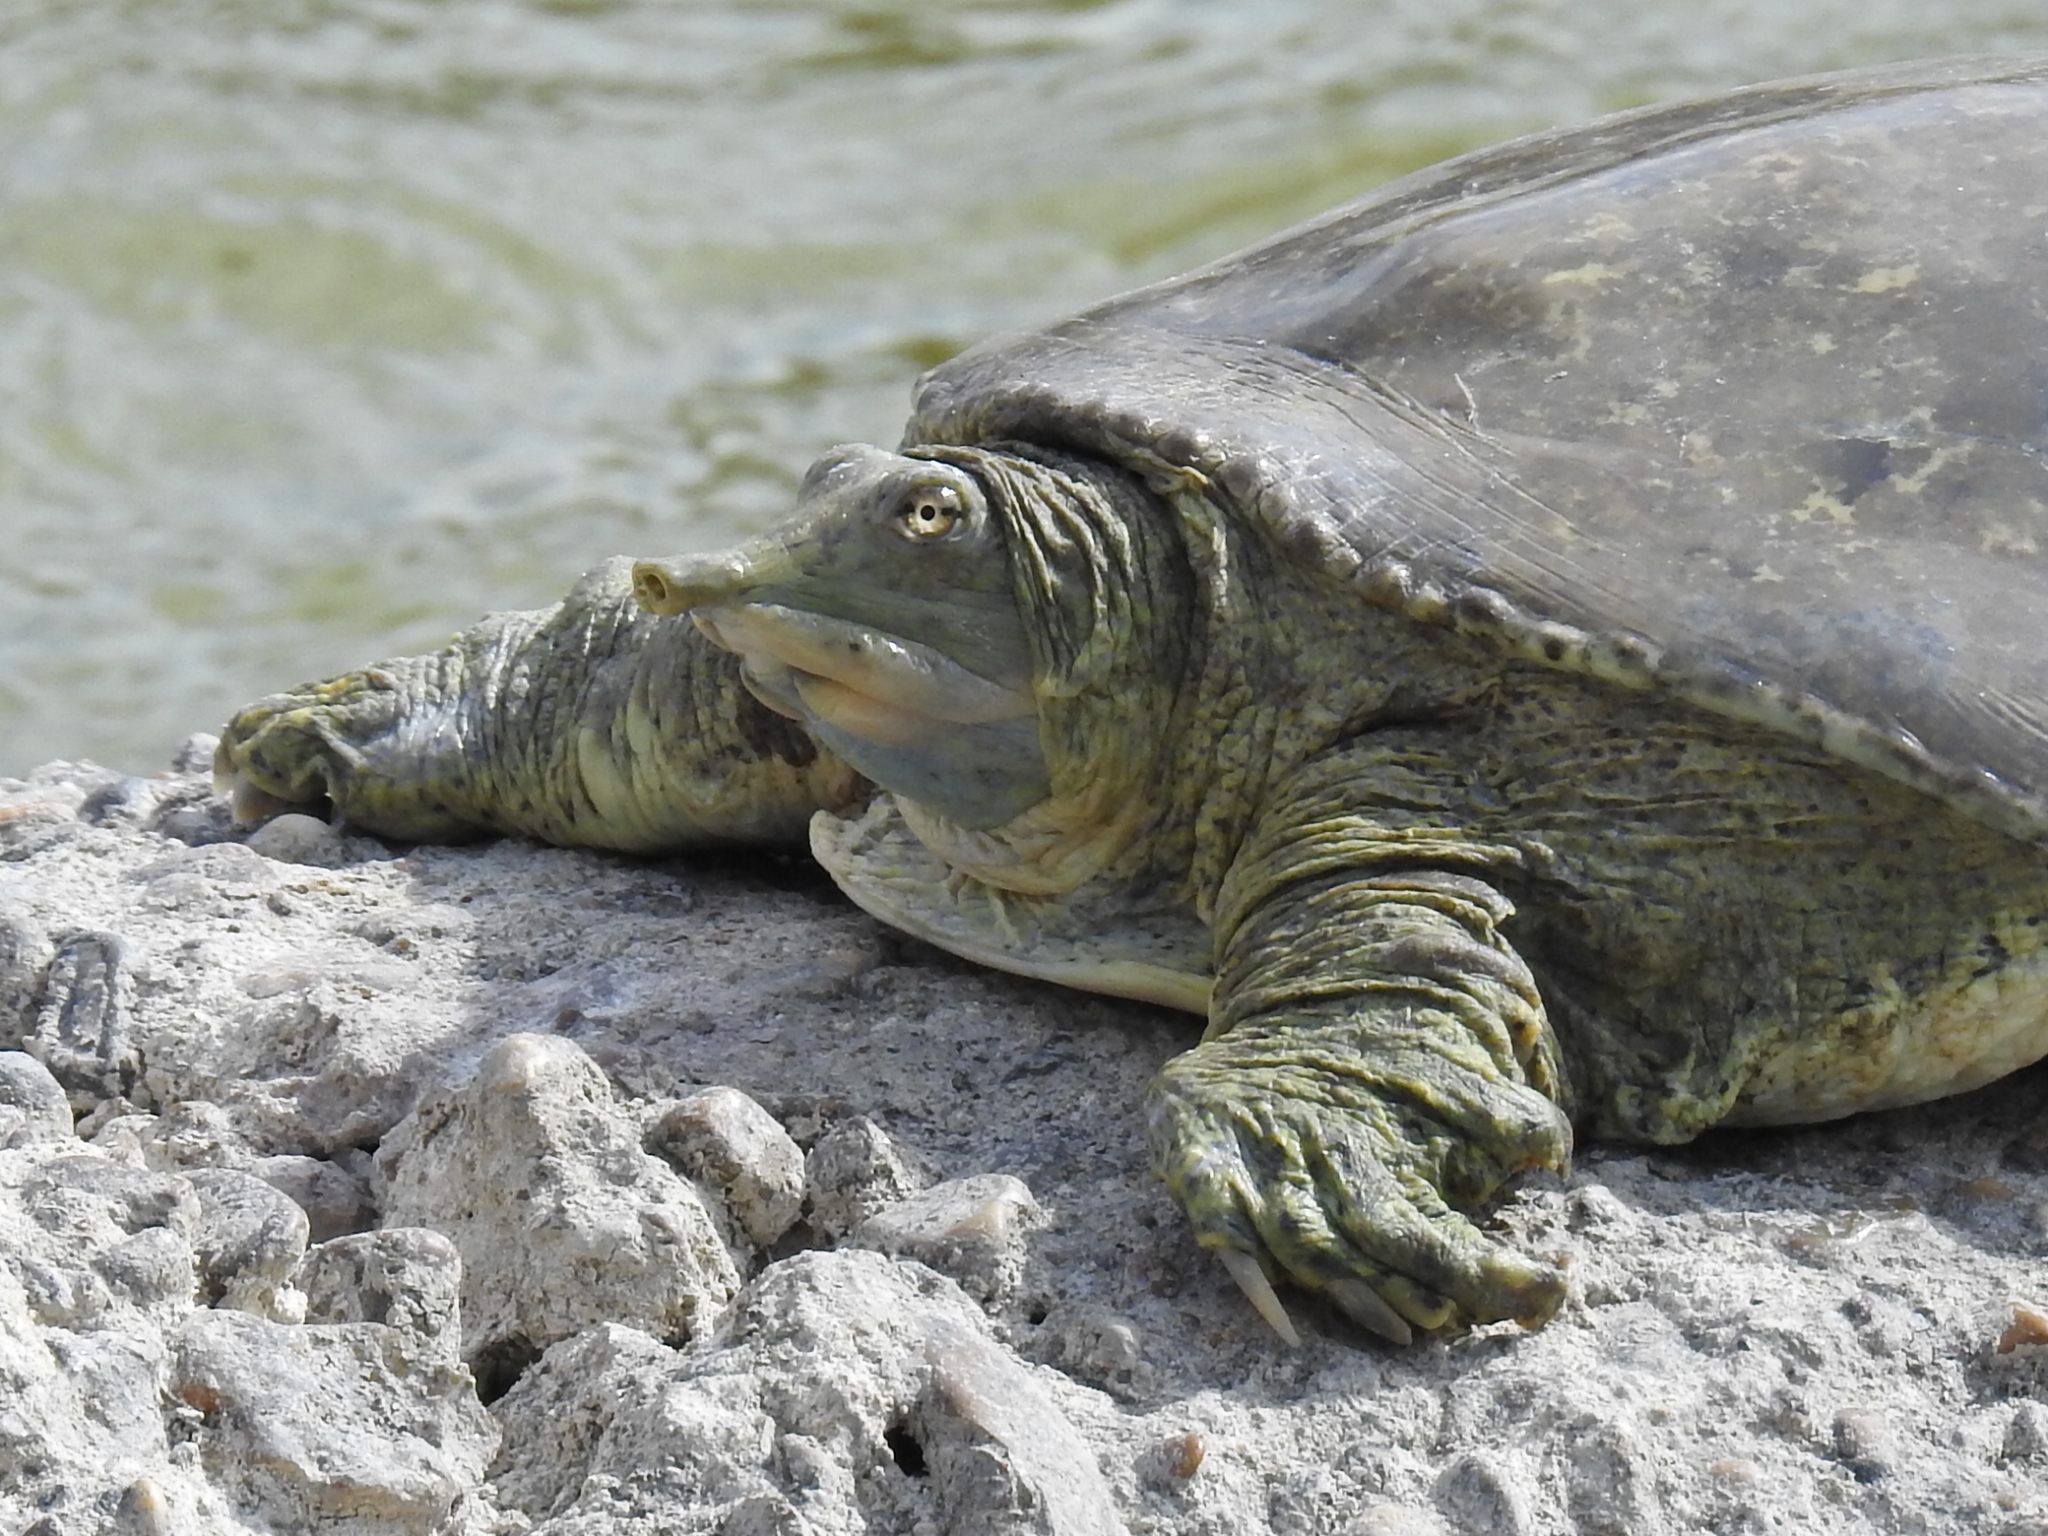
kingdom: Animalia
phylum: Chordata
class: Testudines
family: Trionychidae
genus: Apalone
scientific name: Apalone spinifera
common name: Spiny softshell turtle
